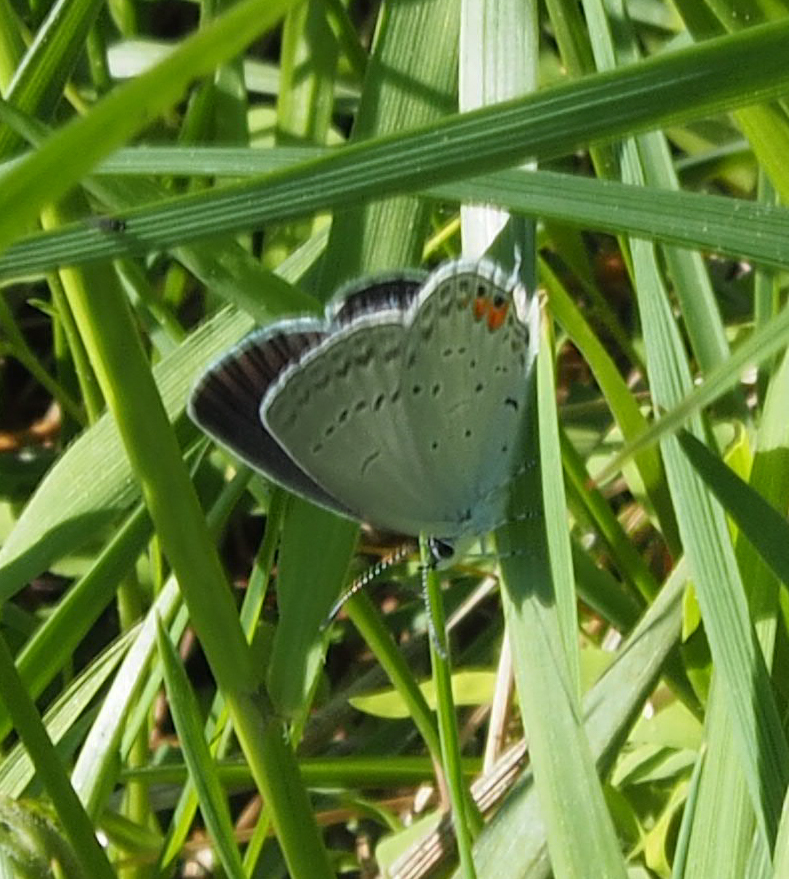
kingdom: Animalia
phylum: Arthropoda
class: Insecta
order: Lepidoptera
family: Lycaenidae
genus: Elkalyce
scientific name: Elkalyce comyntas
